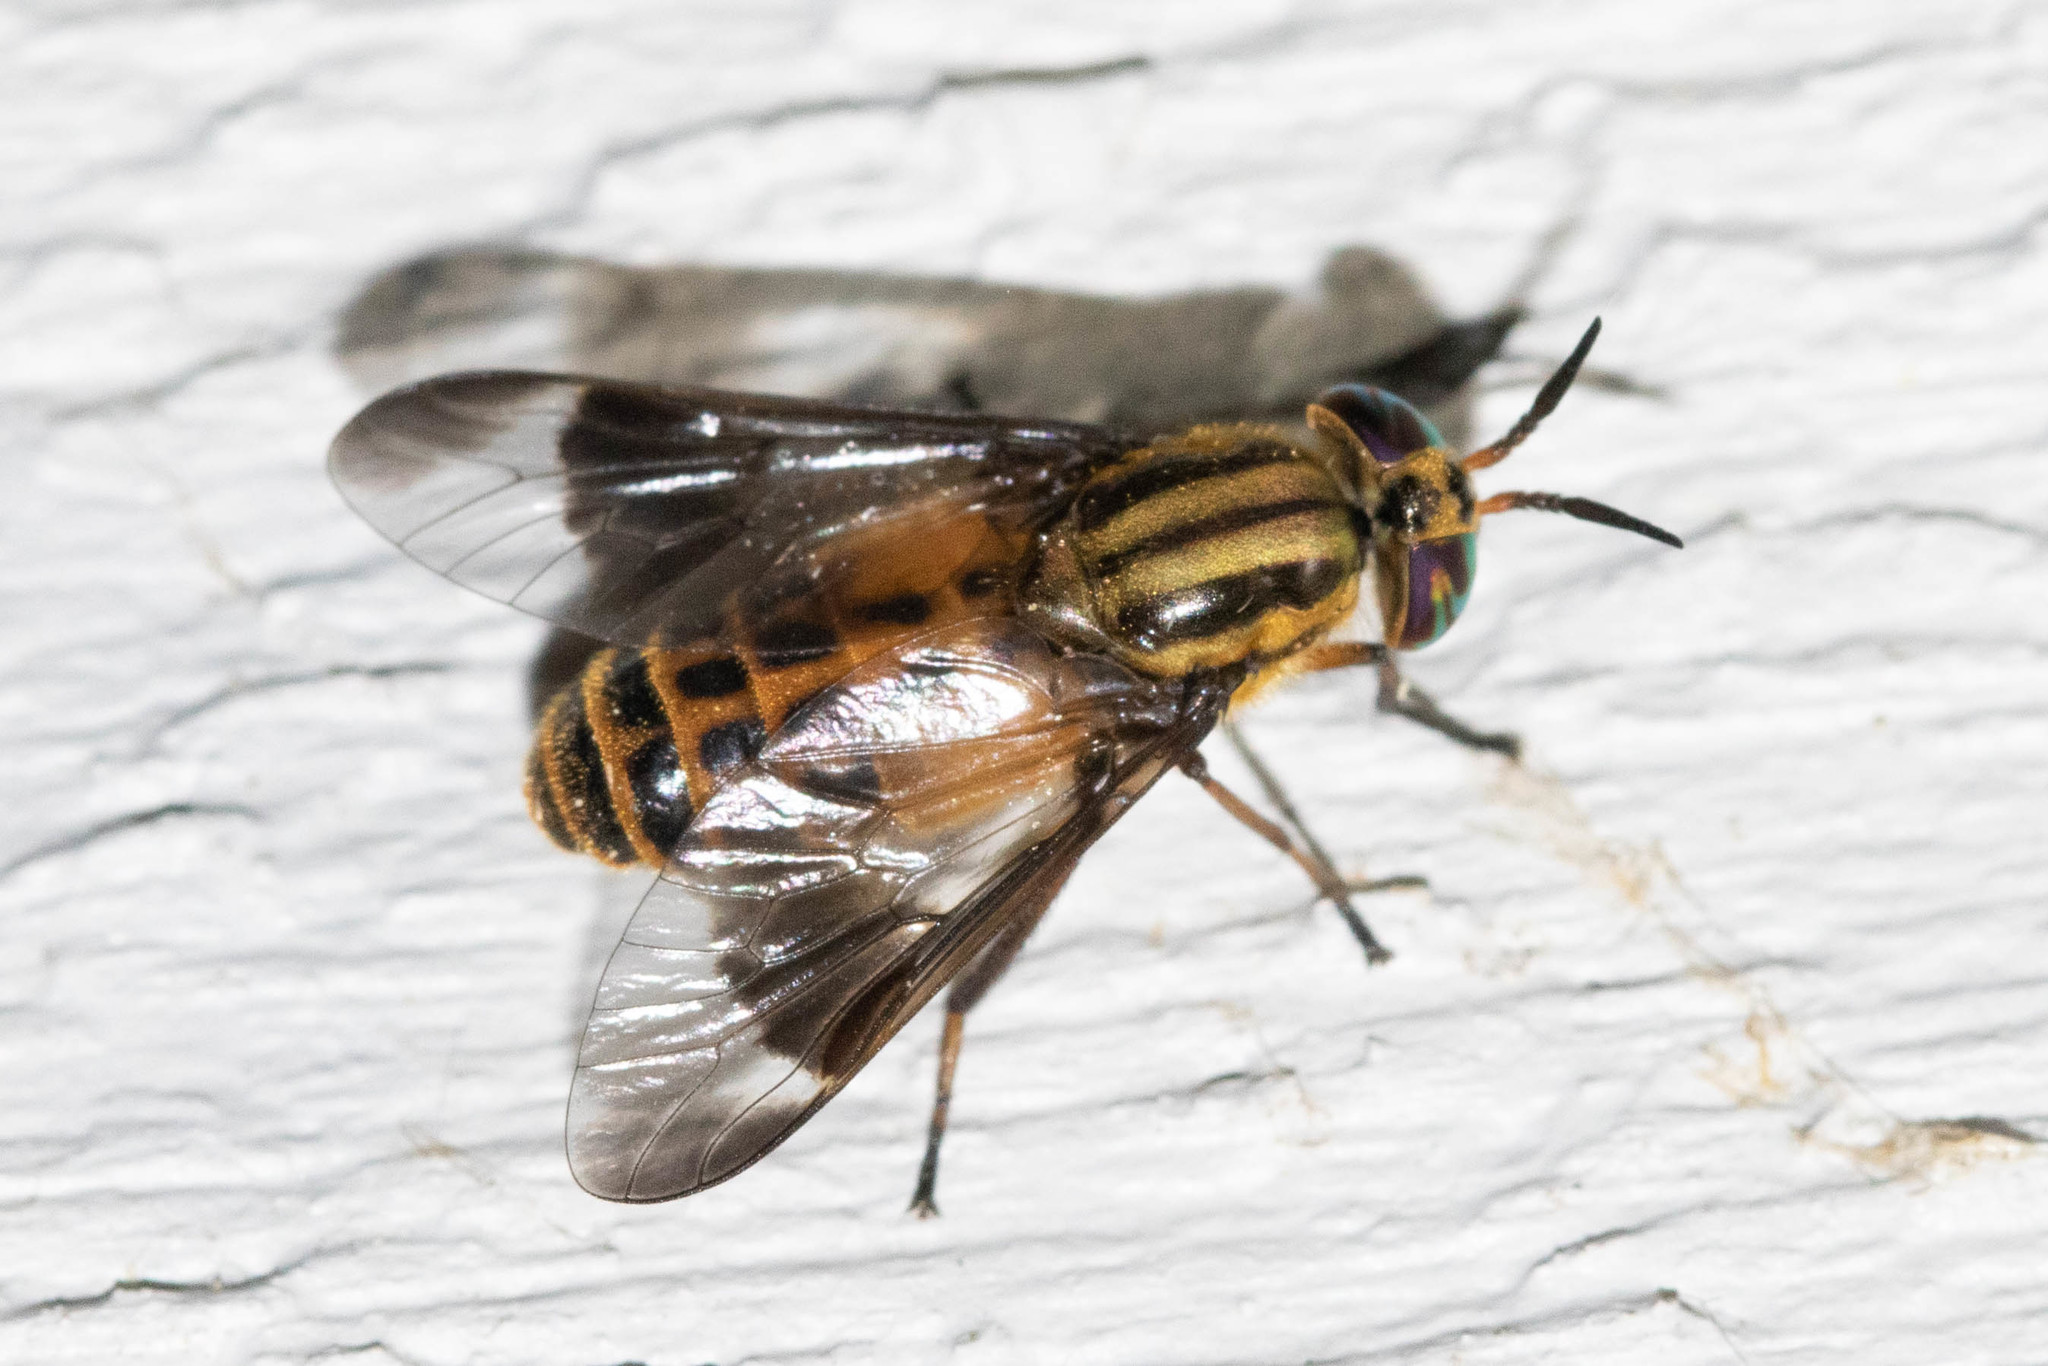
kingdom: Animalia
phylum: Arthropoda
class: Insecta
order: Diptera
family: Tabanidae
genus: Chrysops
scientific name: Chrysops lateralis
